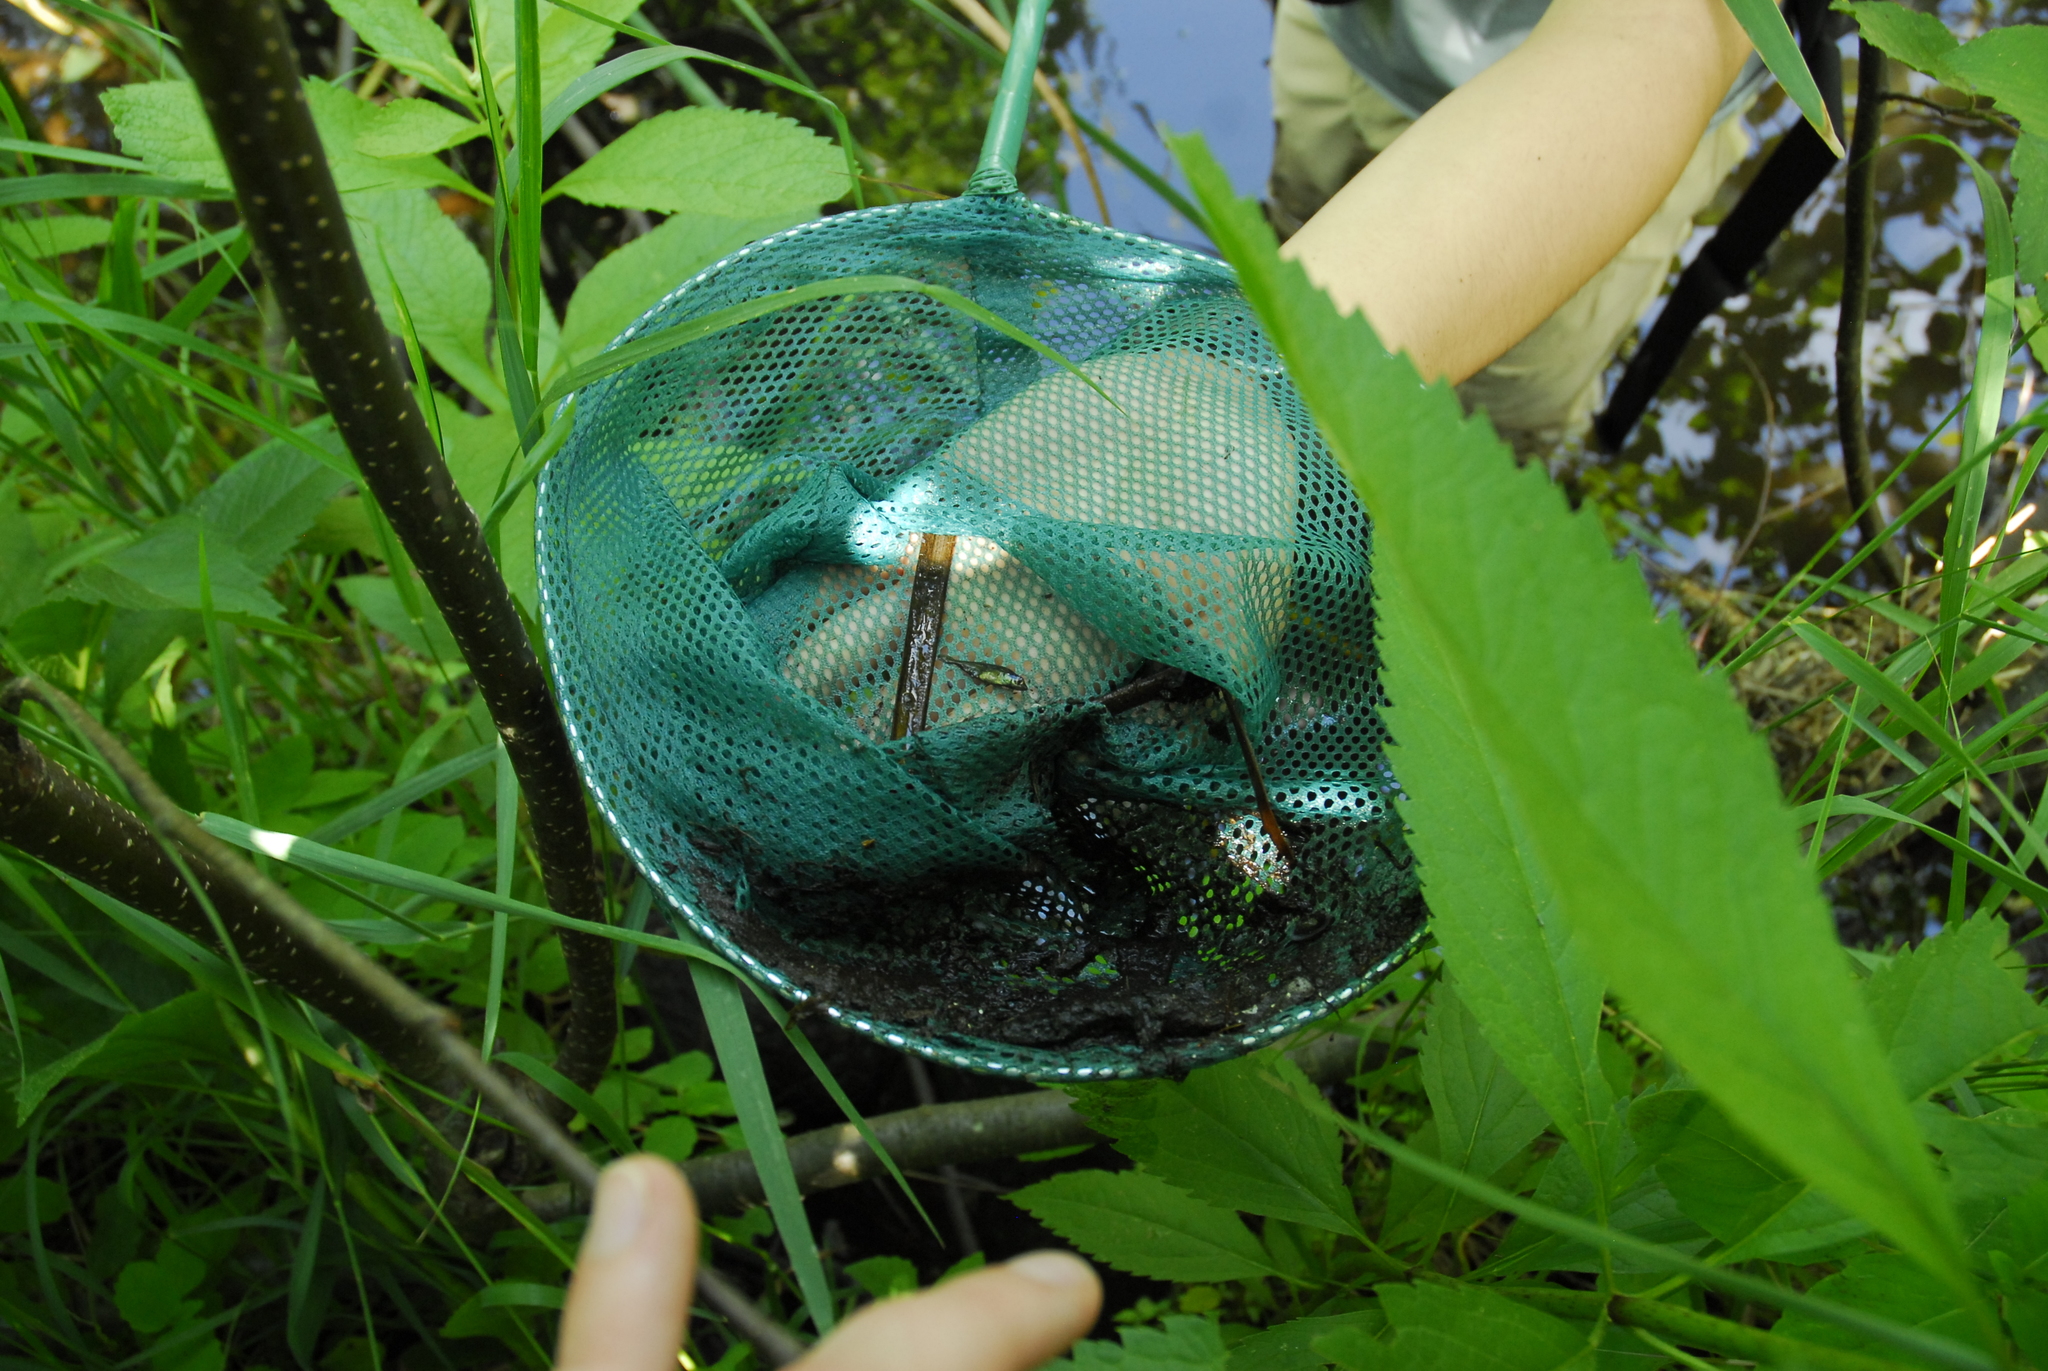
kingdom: Animalia
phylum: Chordata
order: Gasterosteiformes
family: Gasterosteidae
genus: Culaea
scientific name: Culaea inconstans
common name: Brook stickleback
